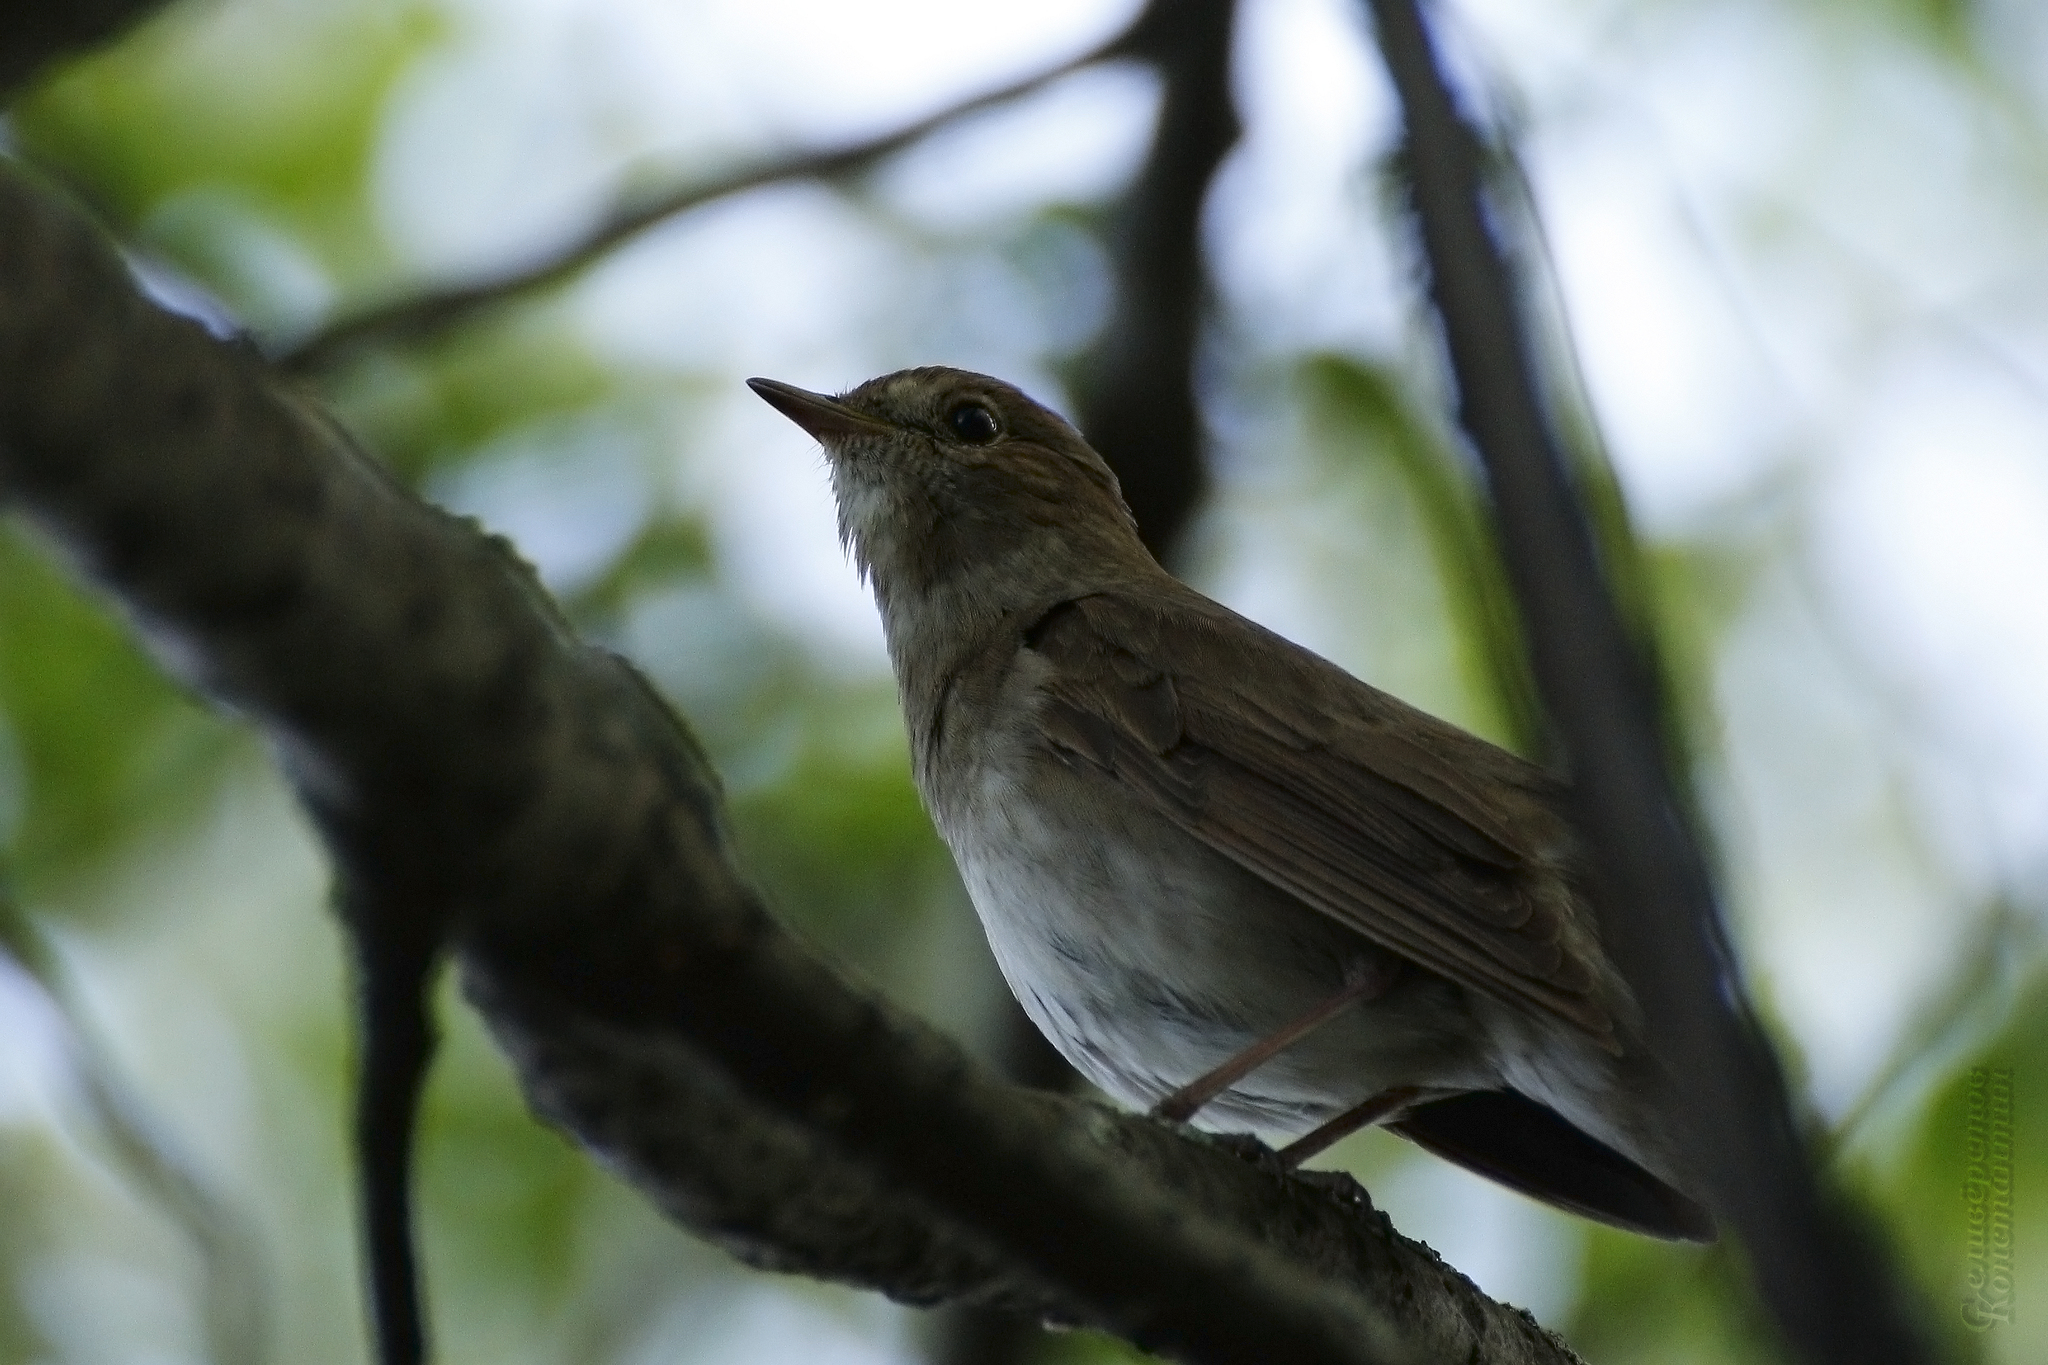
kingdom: Animalia
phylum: Chordata
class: Aves
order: Passeriformes
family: Muscicapidae
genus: Luscinia
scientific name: Luscinia luscinia
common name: Thrush nightingale
